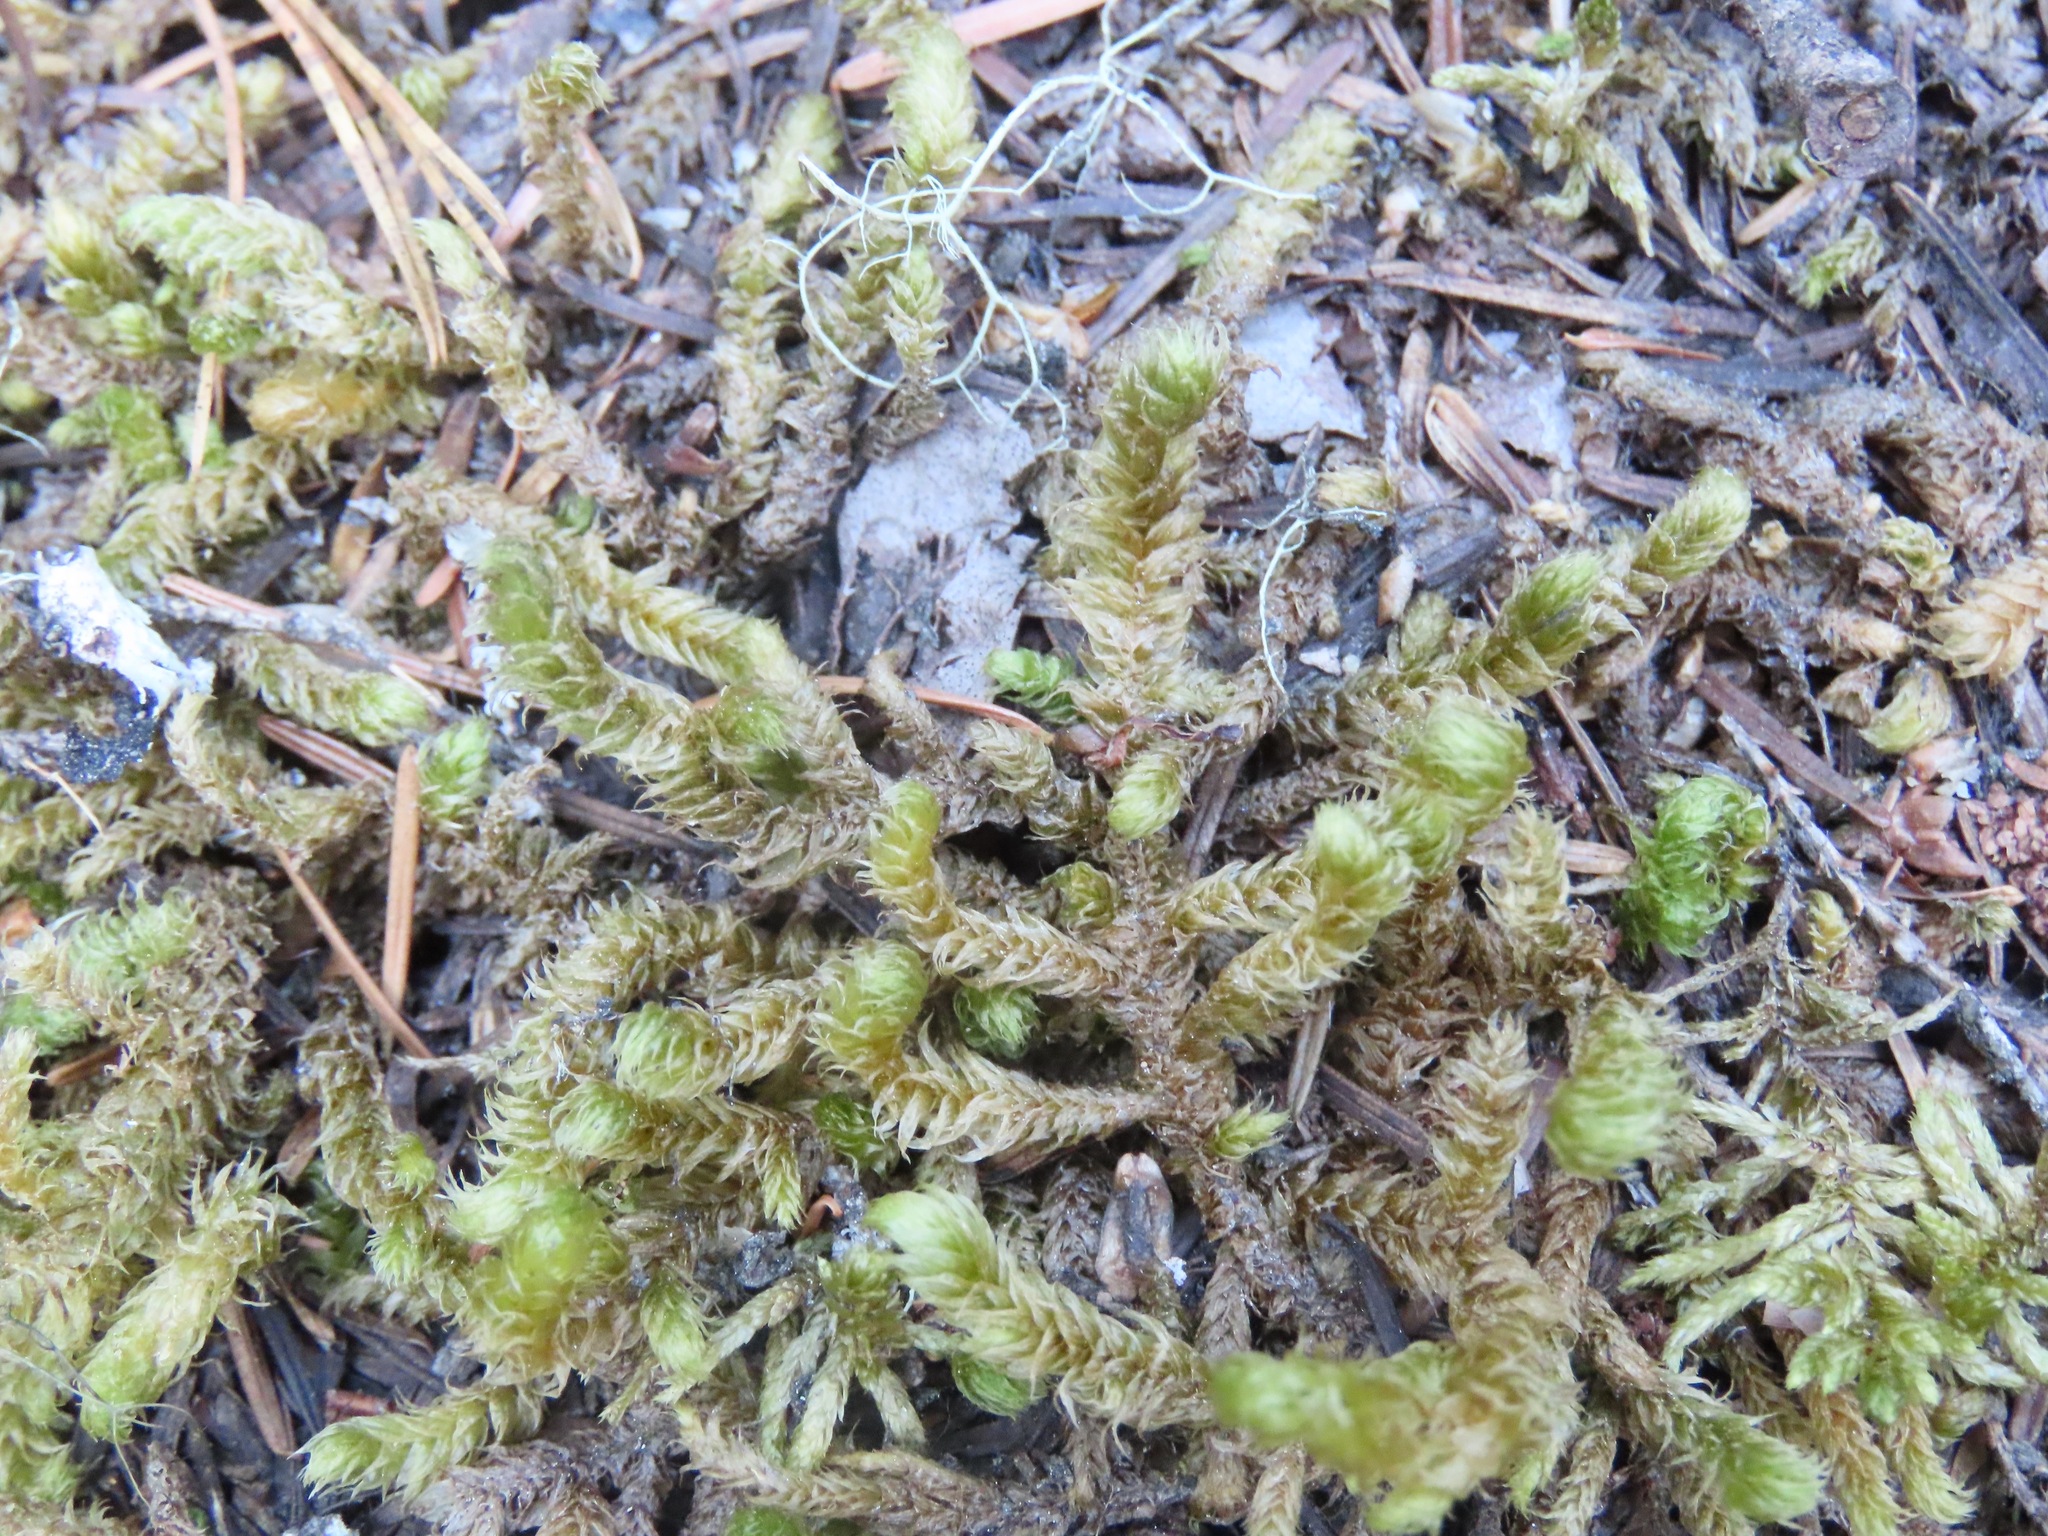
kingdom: Plantae
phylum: Bryophyta
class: Bryopsida
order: Hypnales
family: Hylocomiaceae
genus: Rhytidiopsis
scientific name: Rhytidiopsis robusta
